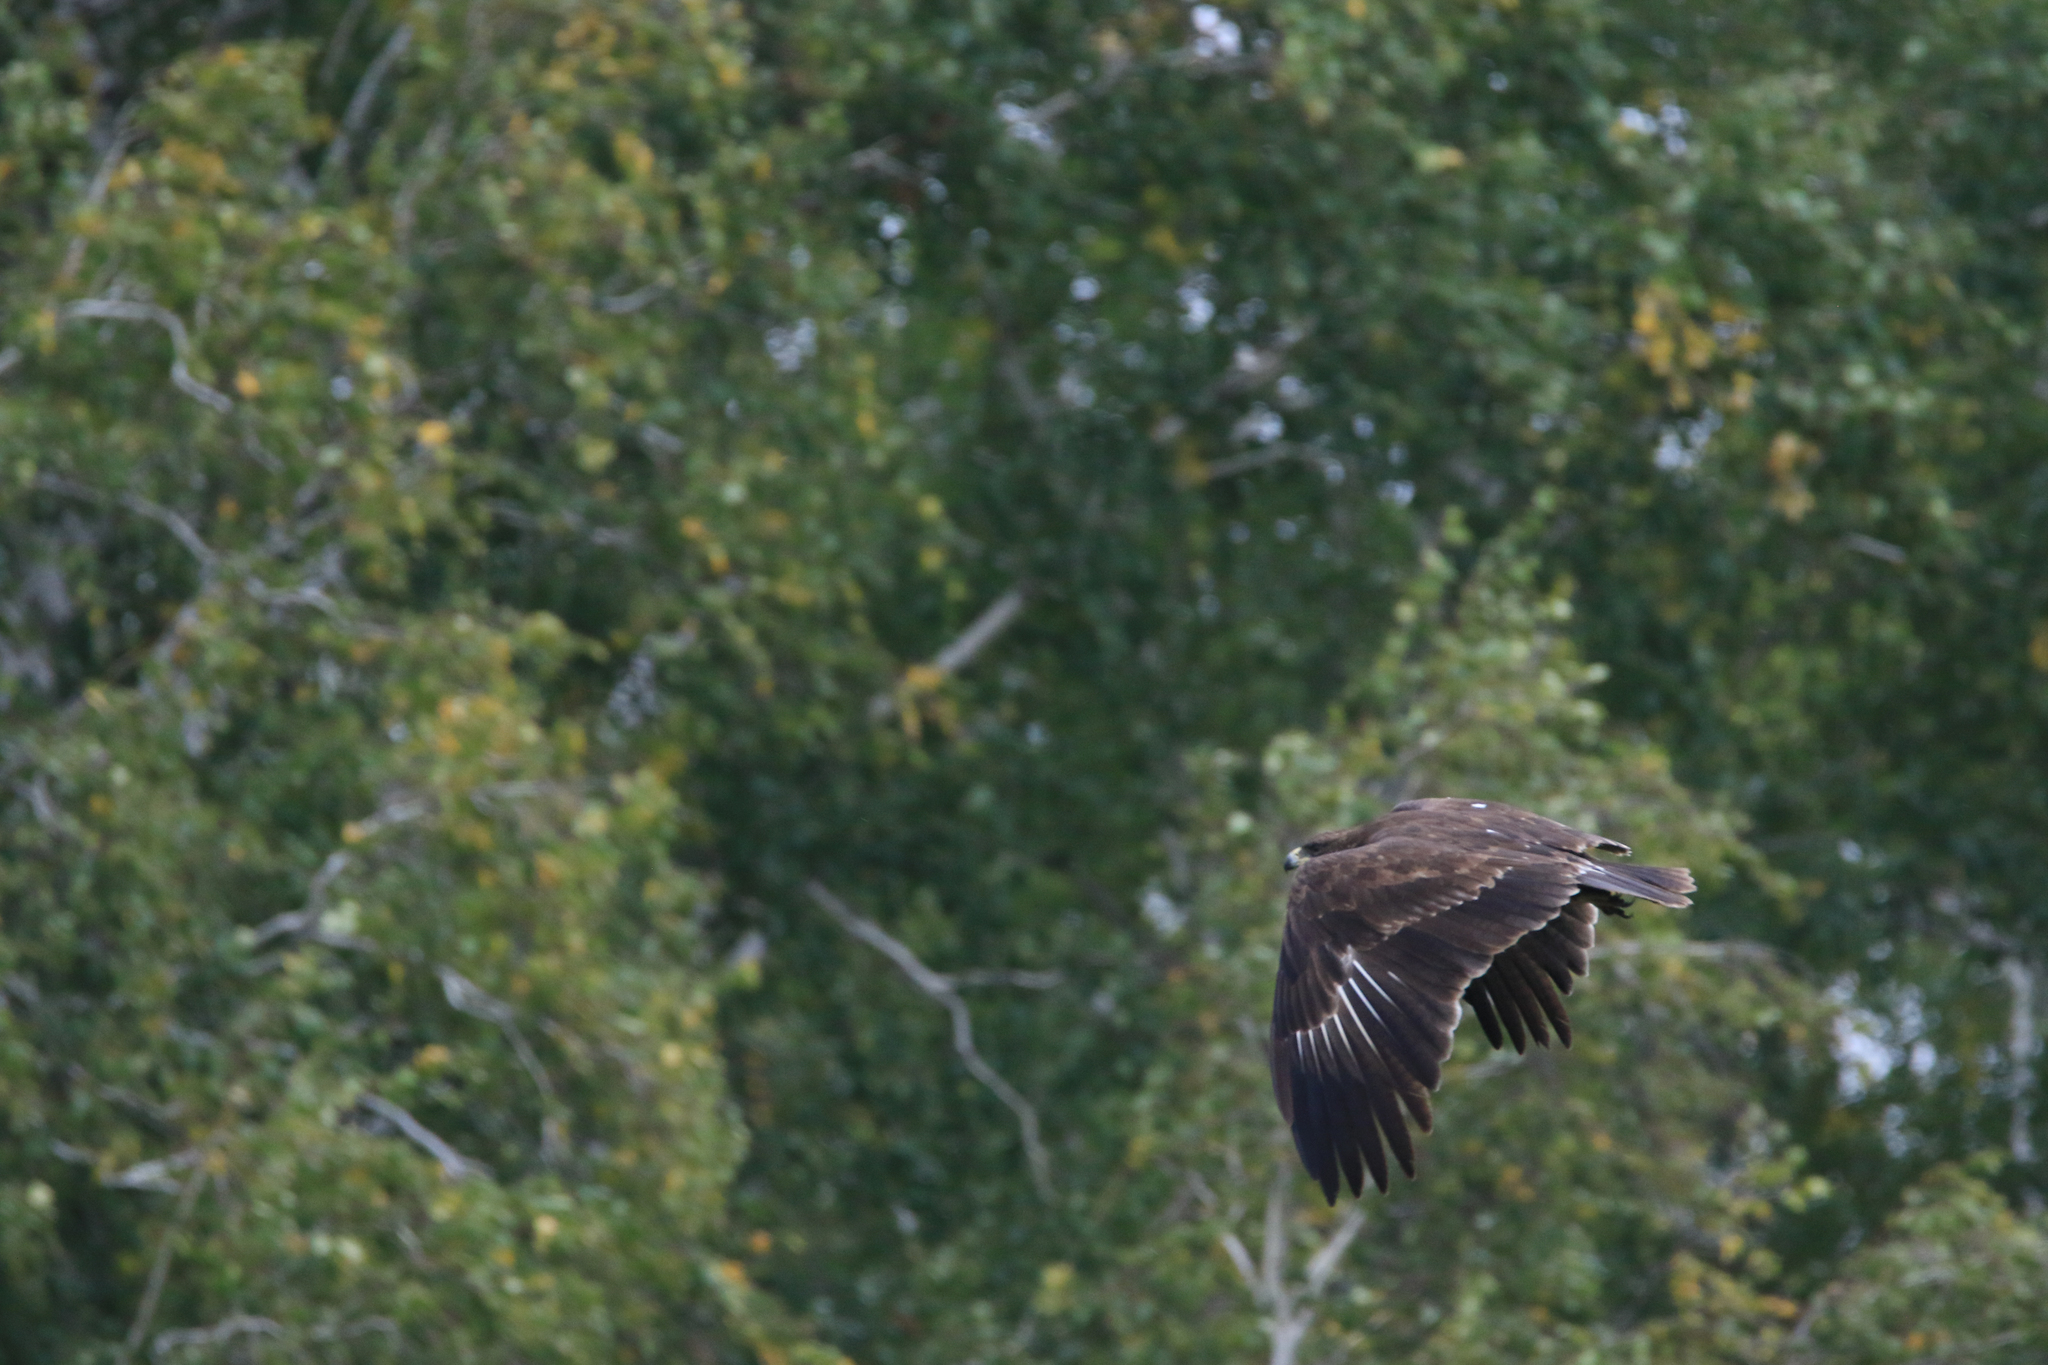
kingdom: Animalia
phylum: Chordata
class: Aves
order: Accipitriformes
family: Accipitridae
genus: Aquila
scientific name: Aquila clanga
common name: Greater spotted eagle
